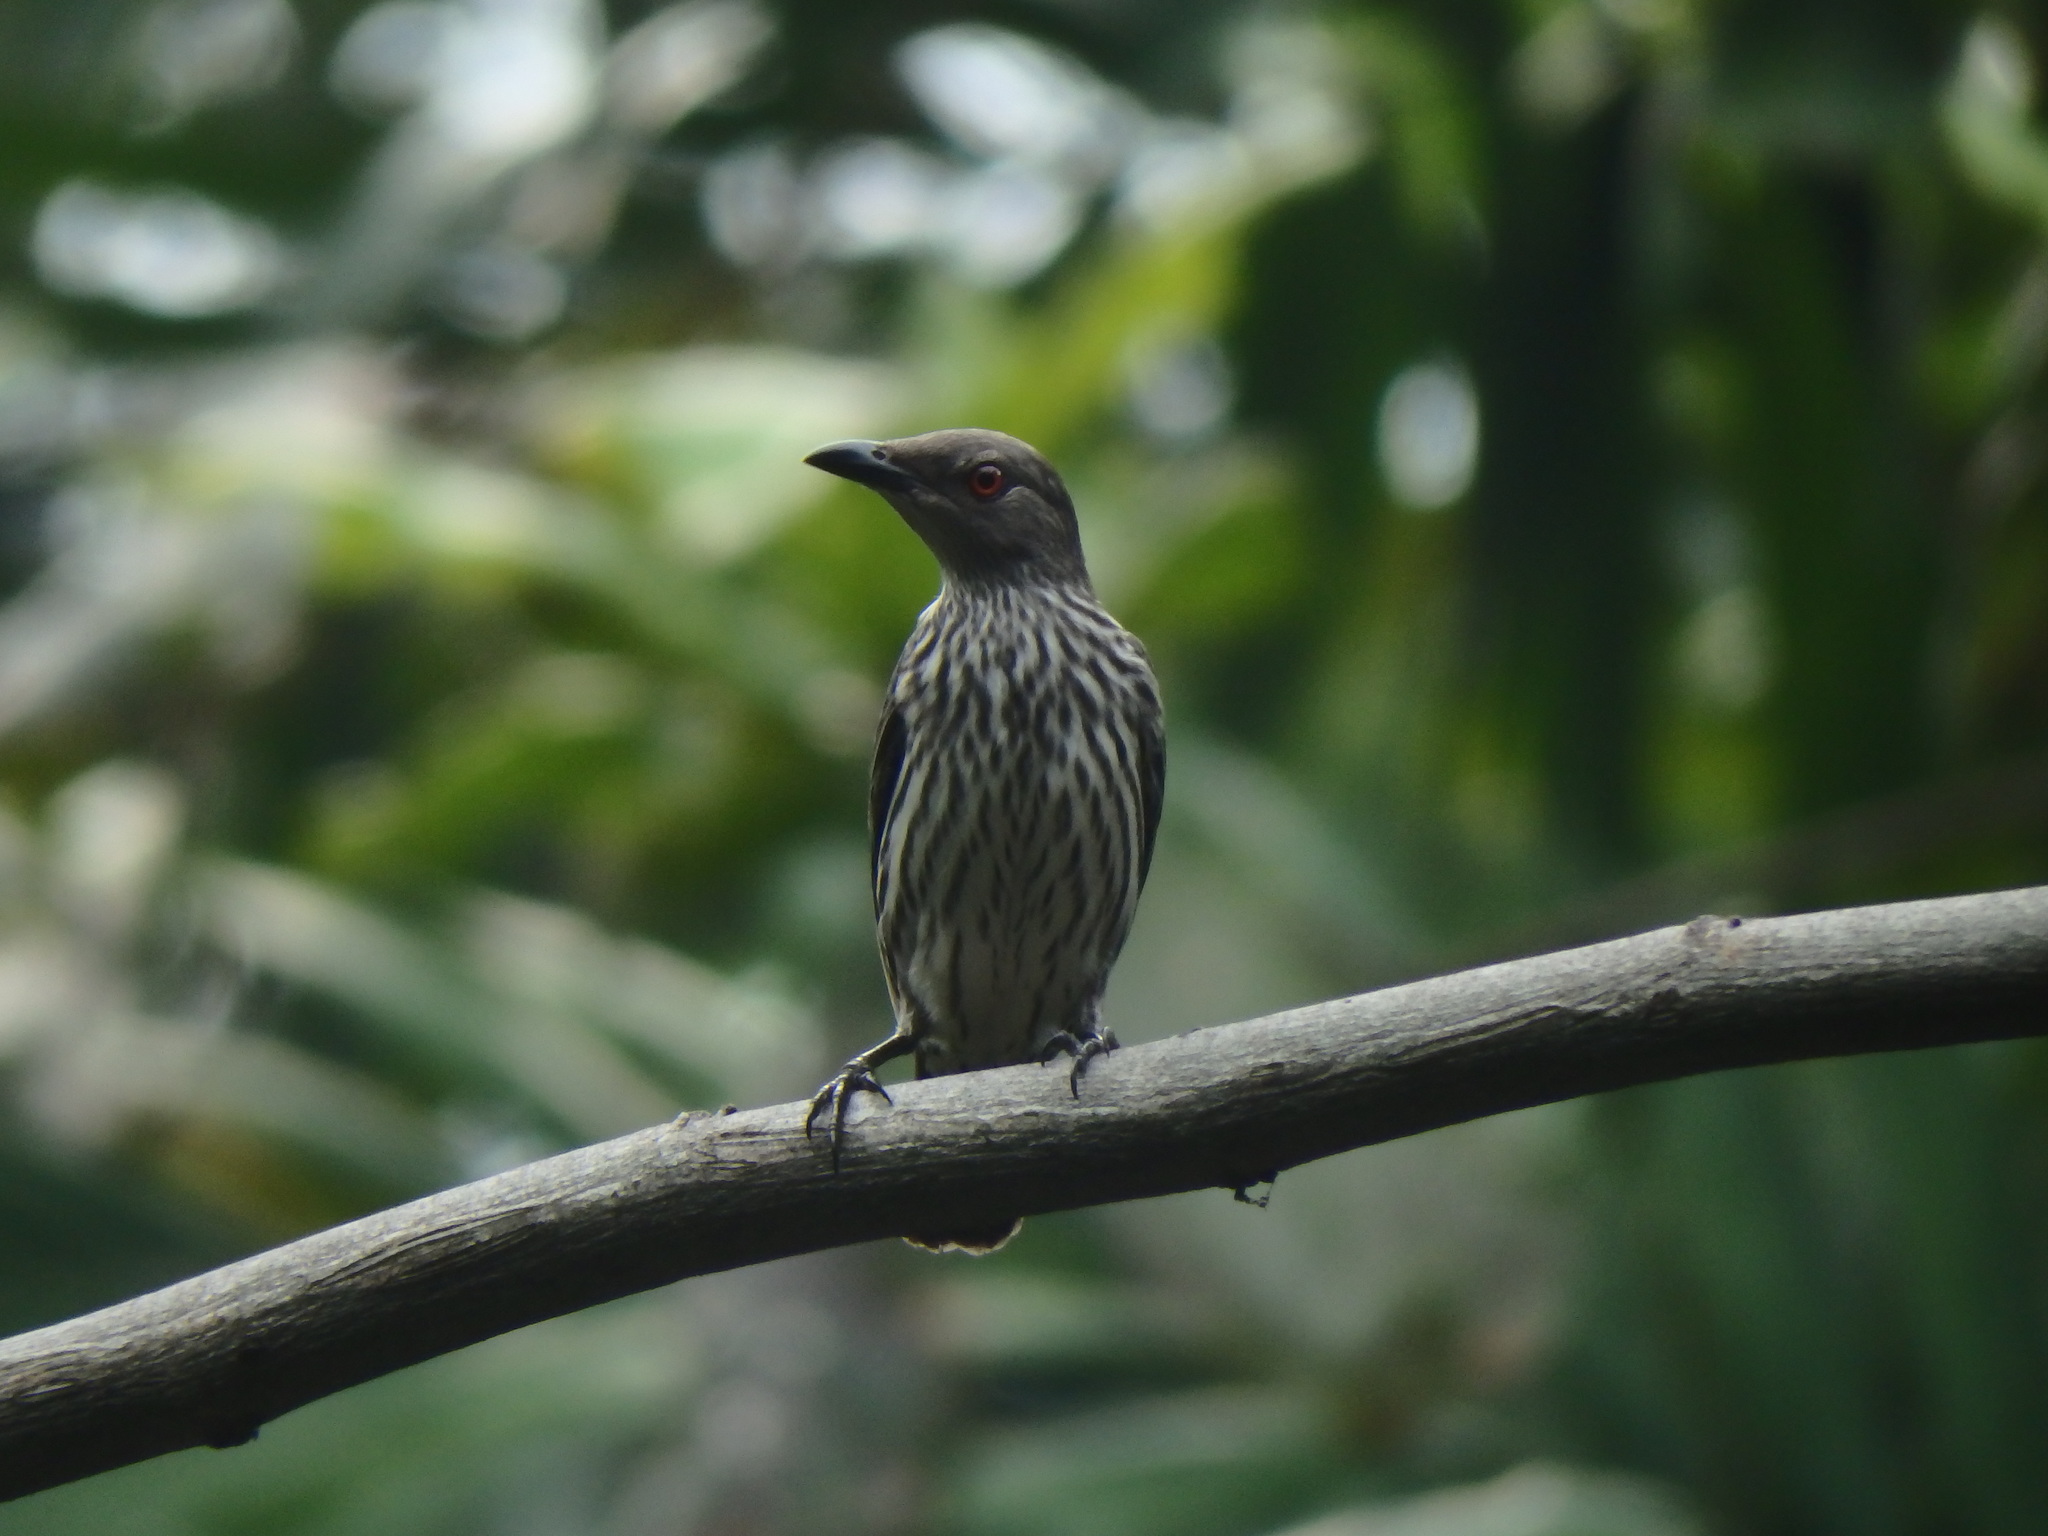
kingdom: Animalia
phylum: Chordata
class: Aves
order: Passeriformes
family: Sturnidae
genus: Aplonis
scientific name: Aplonis panayensis
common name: Asian glossy starling
